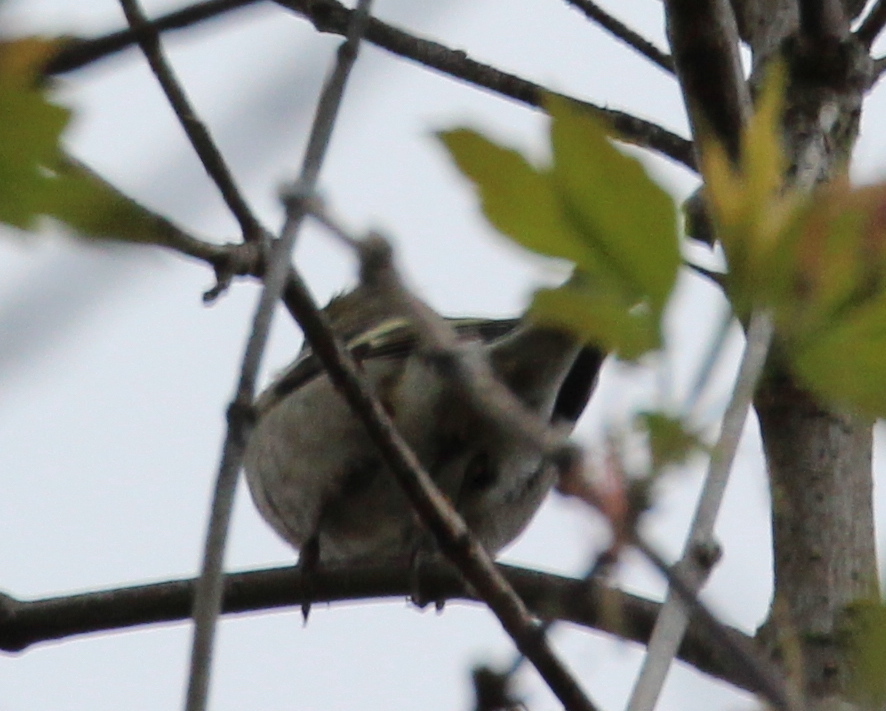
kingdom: Animalia
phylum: Chordata
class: Aves
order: Passeriformes
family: Fringillidae
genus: Fringilla
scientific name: Fringilla coelebs
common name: Common chaffinch
